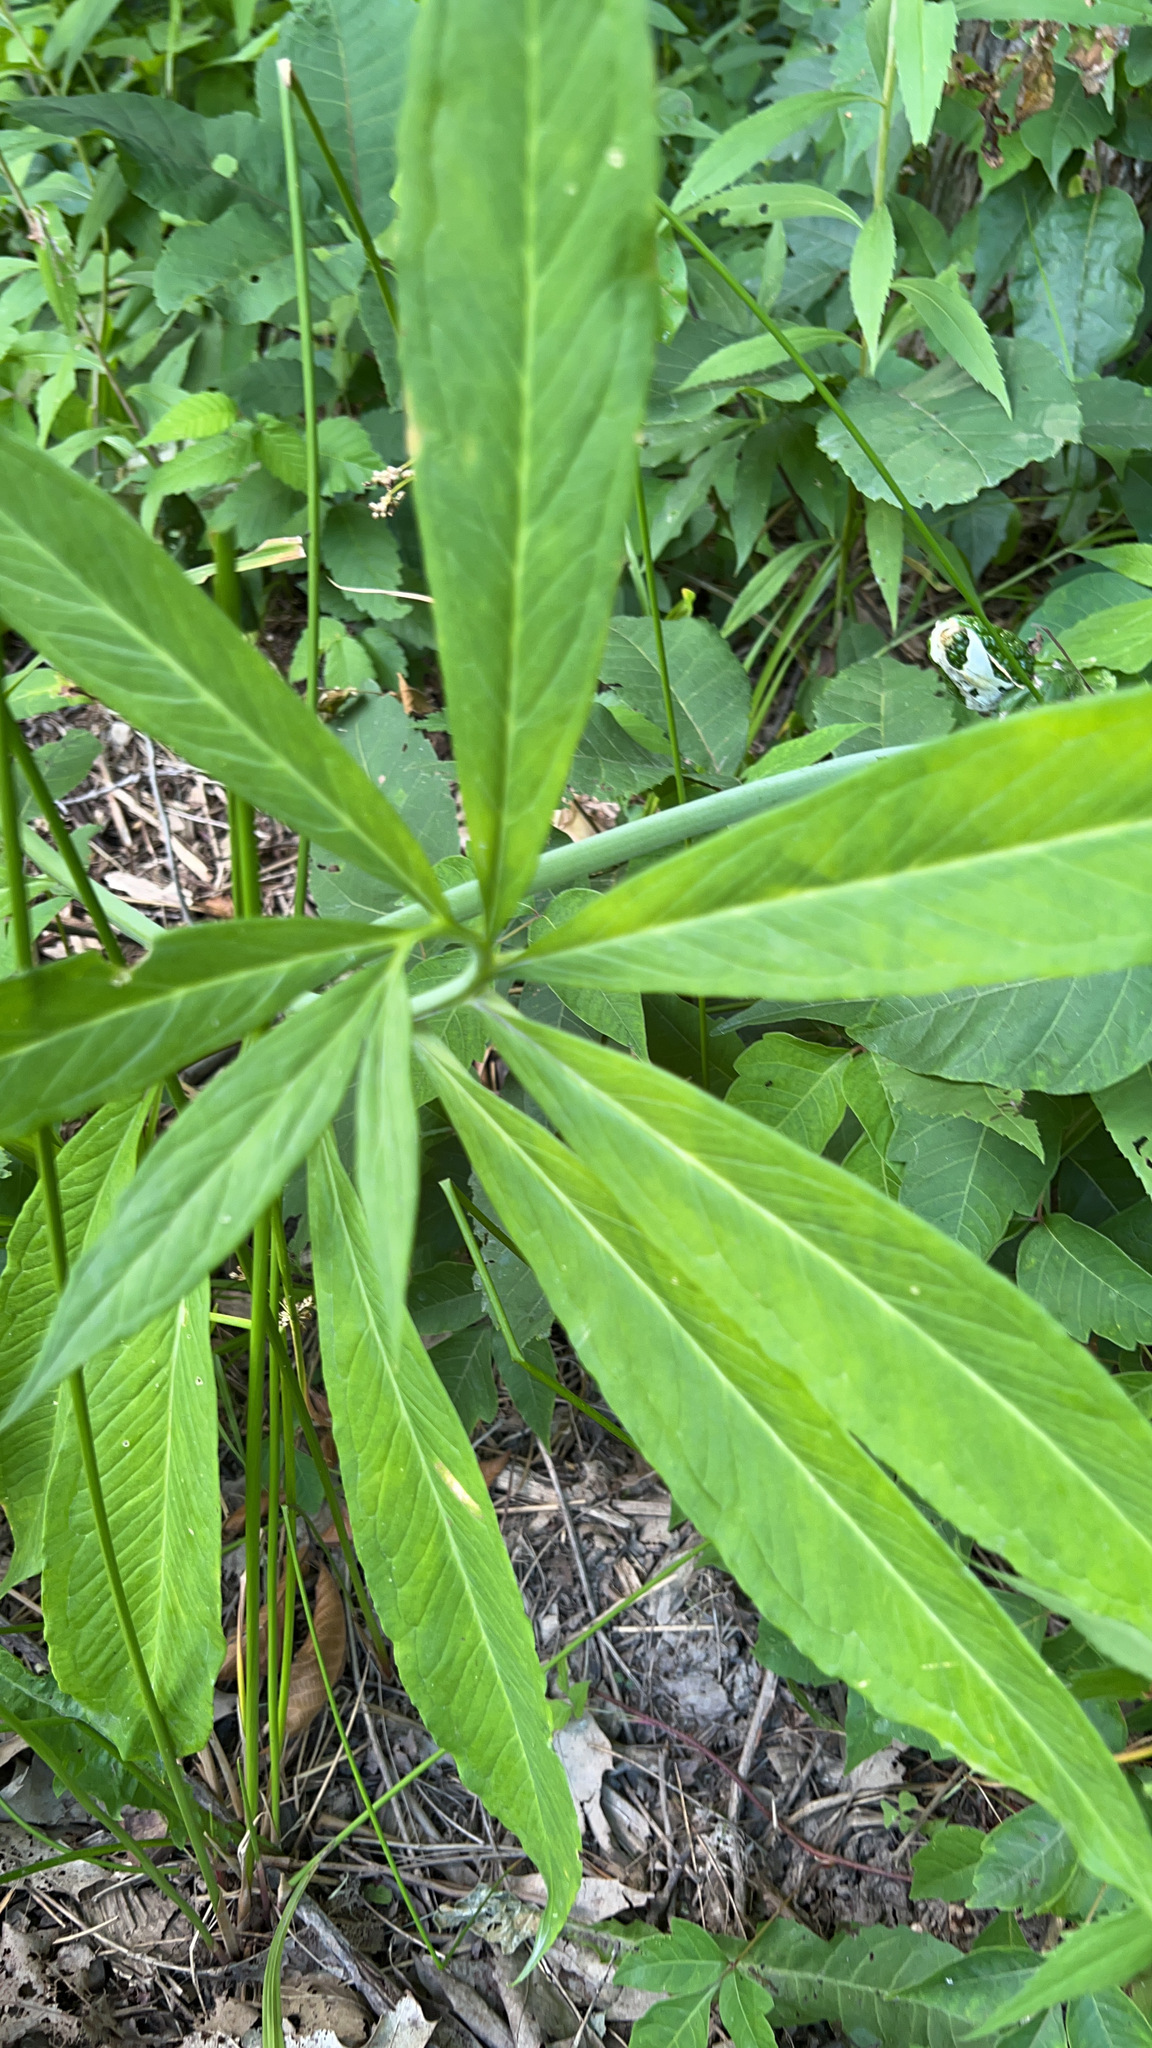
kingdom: Plantae
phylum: Tracheophyta
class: Liliopsida
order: Alismatales
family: Araceae
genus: Arisaema
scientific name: Arisaema dracontium
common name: Dragon-arum
